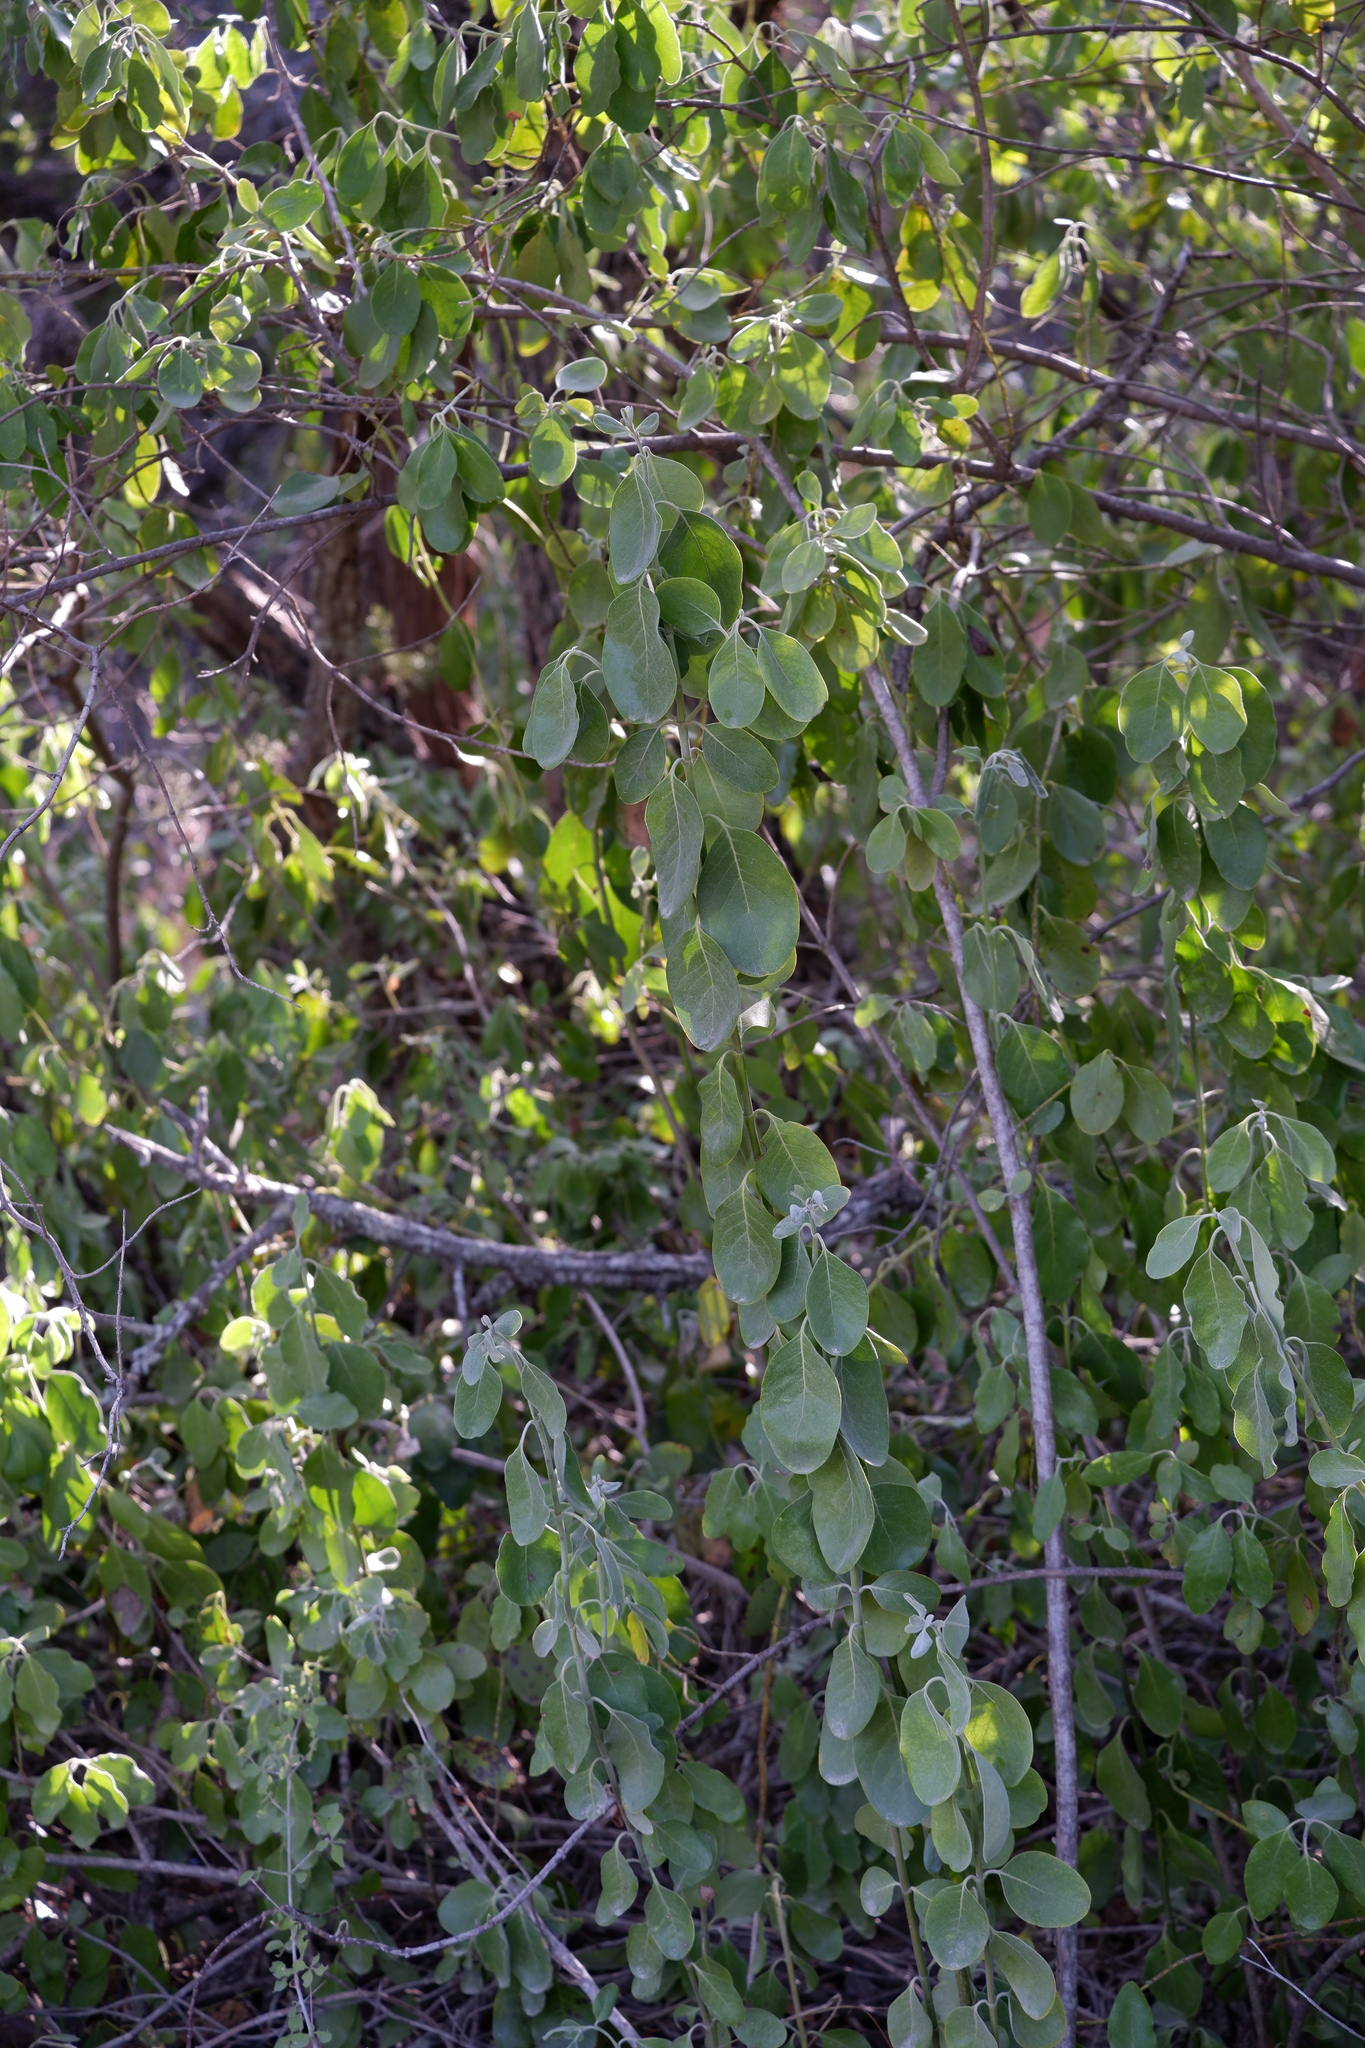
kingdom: Plantae
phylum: Tracheophyta
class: Magnoliopsida
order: Garryales
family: Garryaceae
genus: Garrya
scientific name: Garrya lindheimeri
